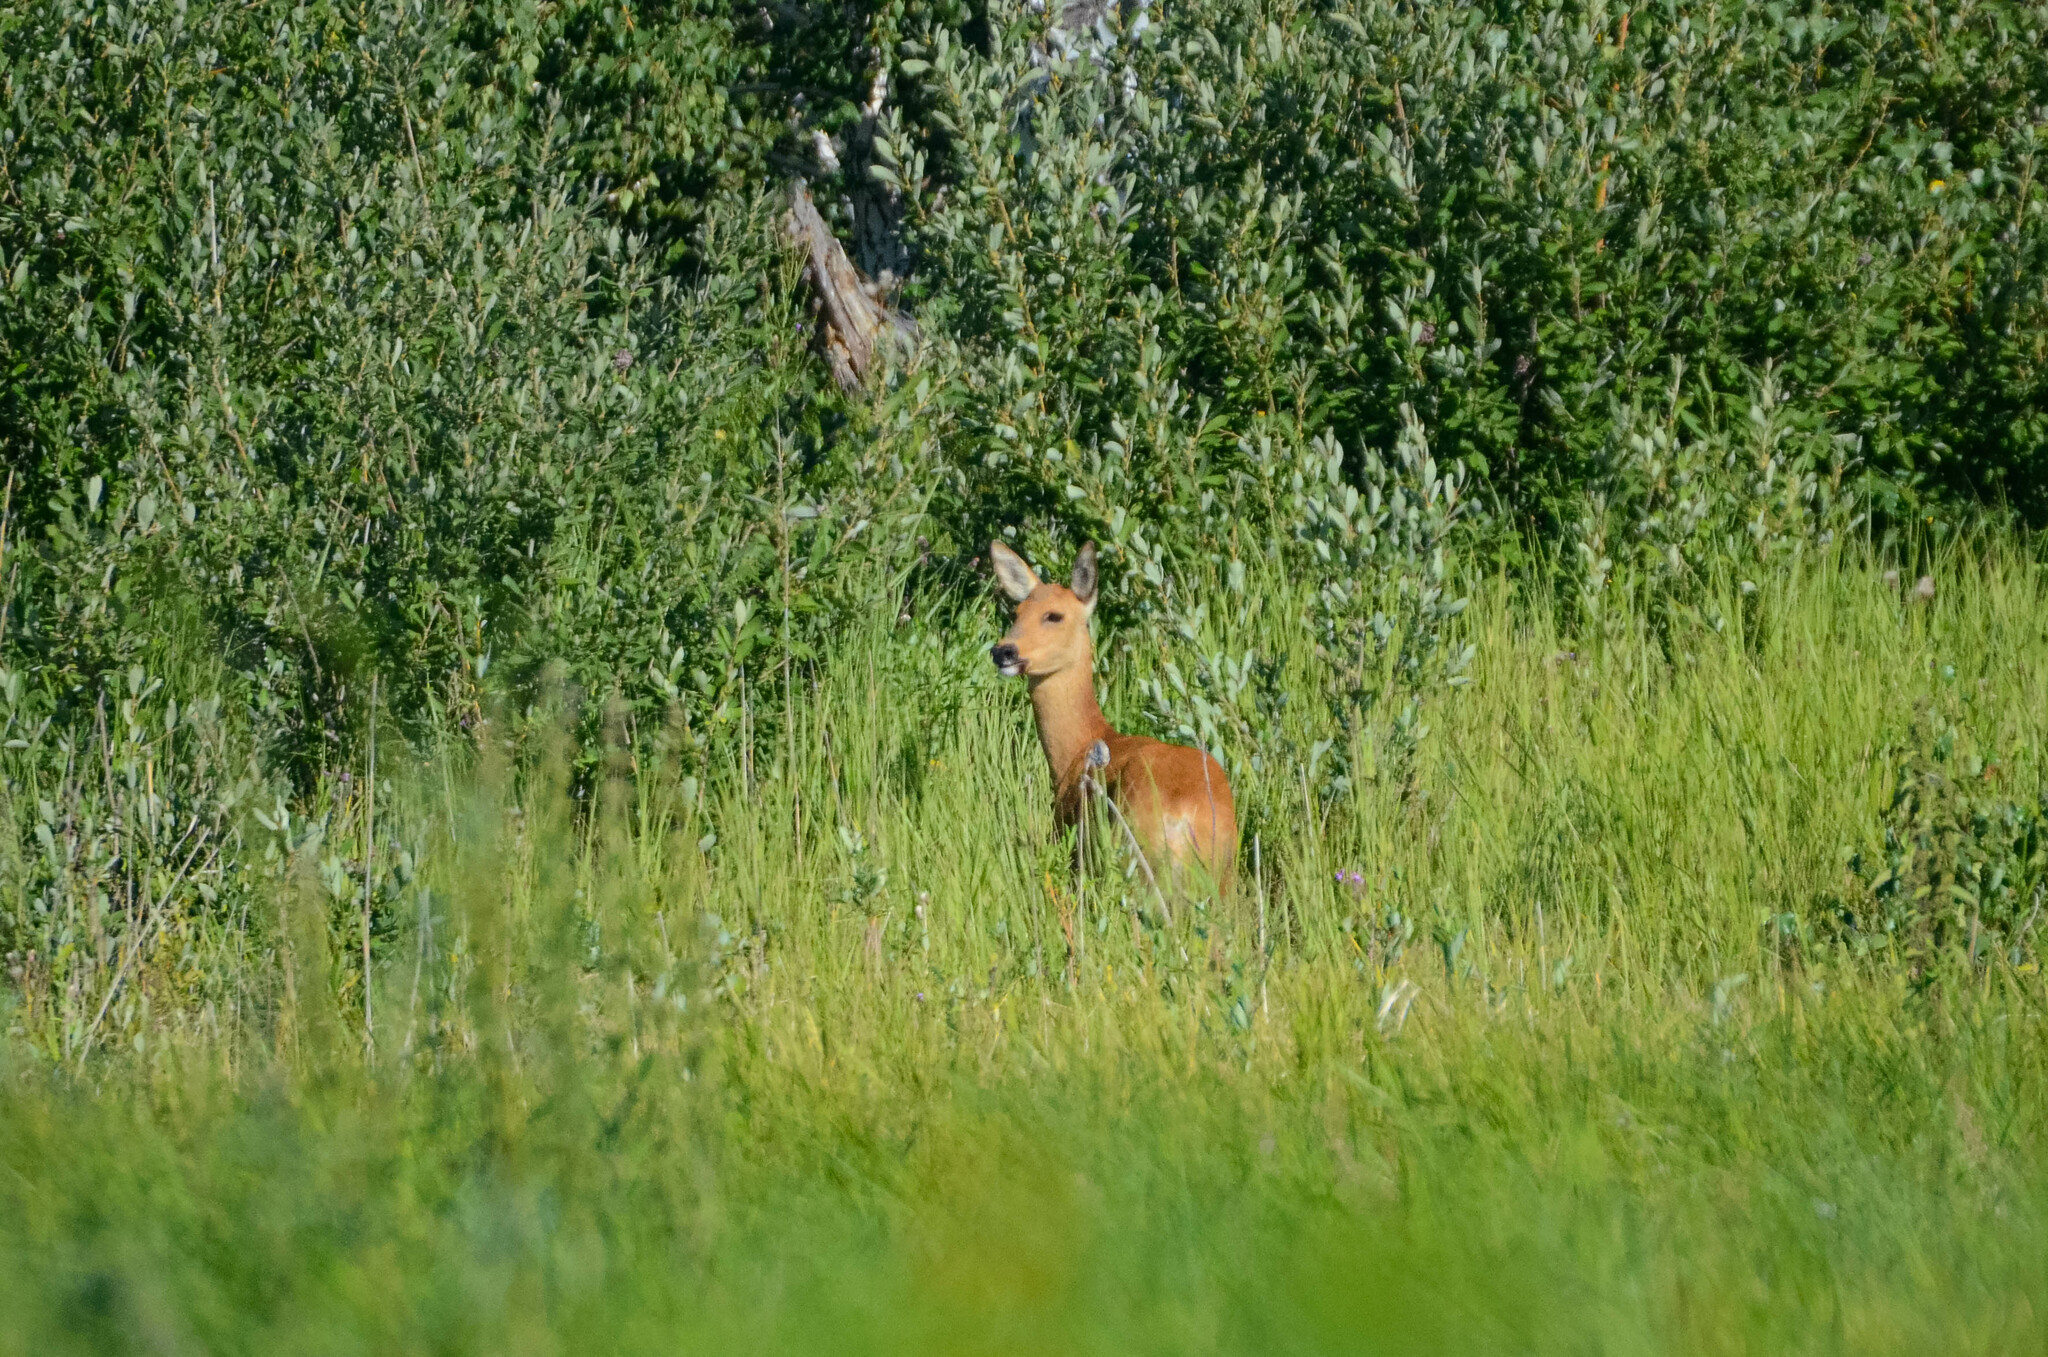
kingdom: Animalia
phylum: Chordata
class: Mammalia
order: Artiodactyla
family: Cervidae
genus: Capreolus
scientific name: Capreolus pygargus
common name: Siberian roe
